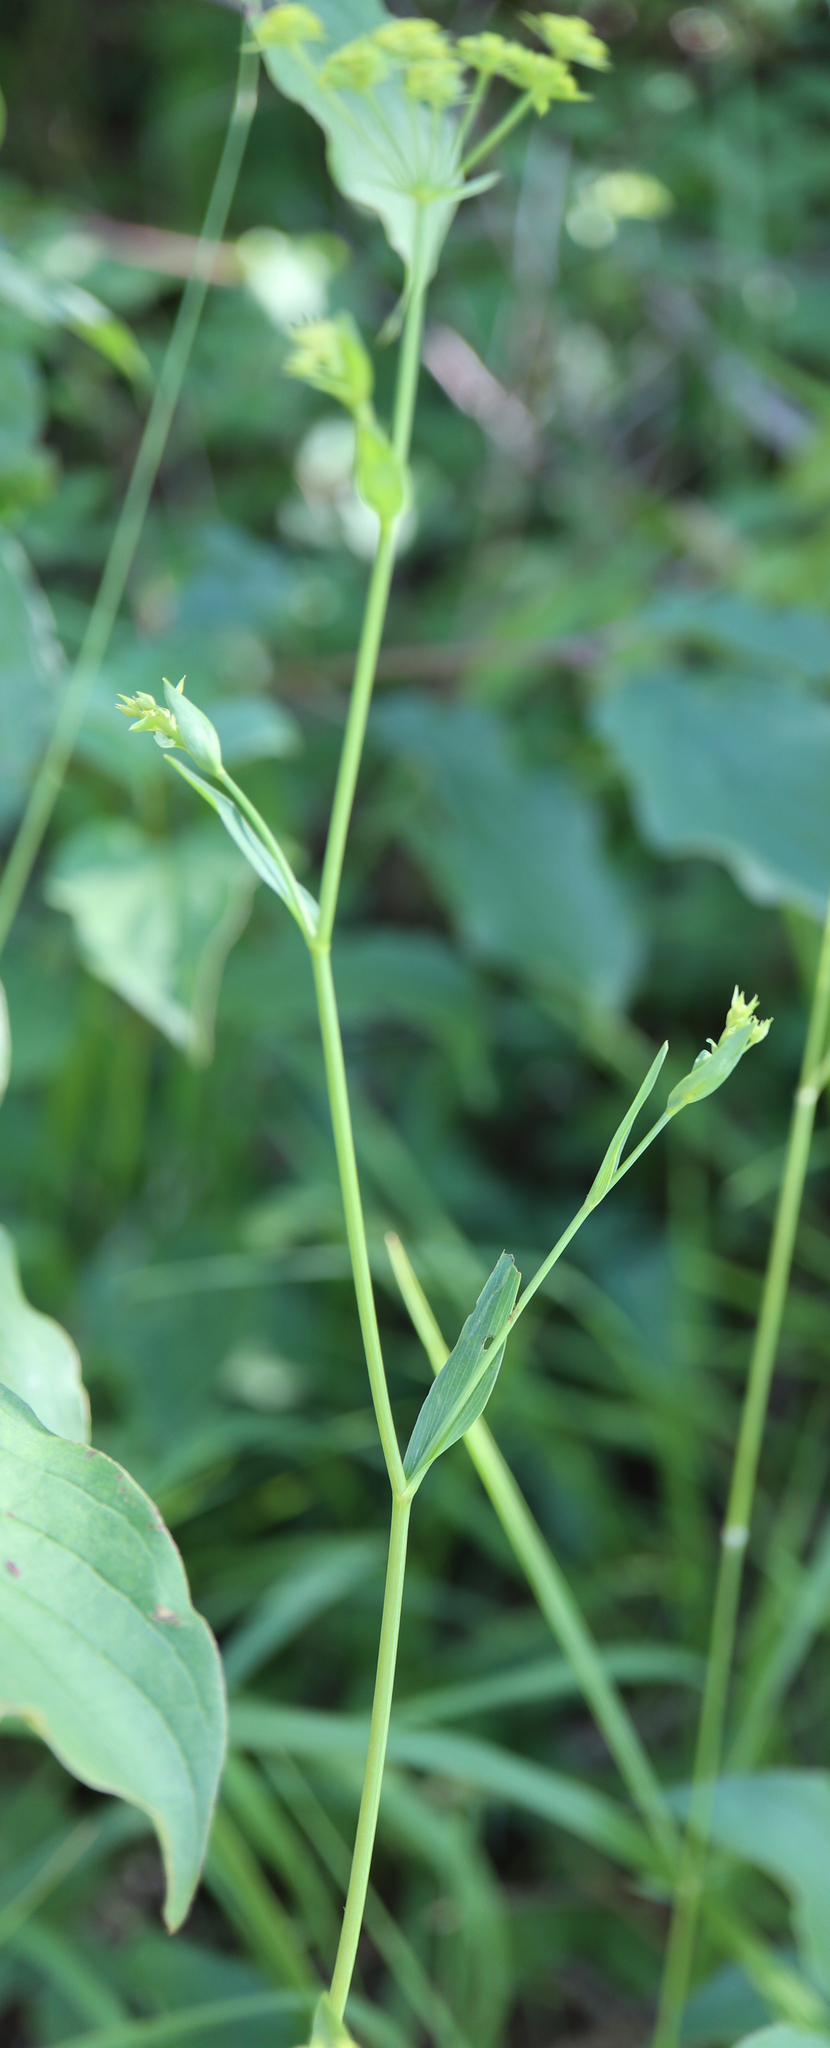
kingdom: Plantae
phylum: Tracheophyta
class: Magnoliopsida
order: Apiales
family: Apiaceae
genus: Bupleurum
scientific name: Bupleurum falcatum
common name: Sickle-leaved hare's-ear
